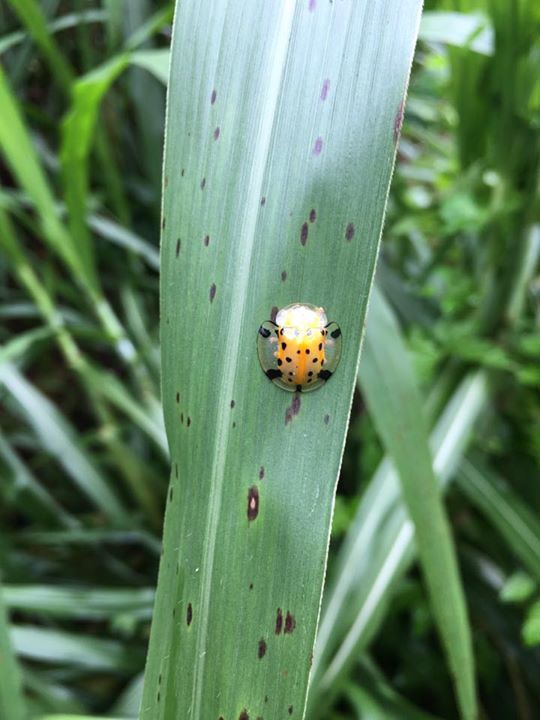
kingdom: Animalia
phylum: Arthropoda
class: Insecta
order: Coleoptera
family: Chrysomelidae
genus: Aspidimorpha
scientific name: Aspidimorpha miliaris
